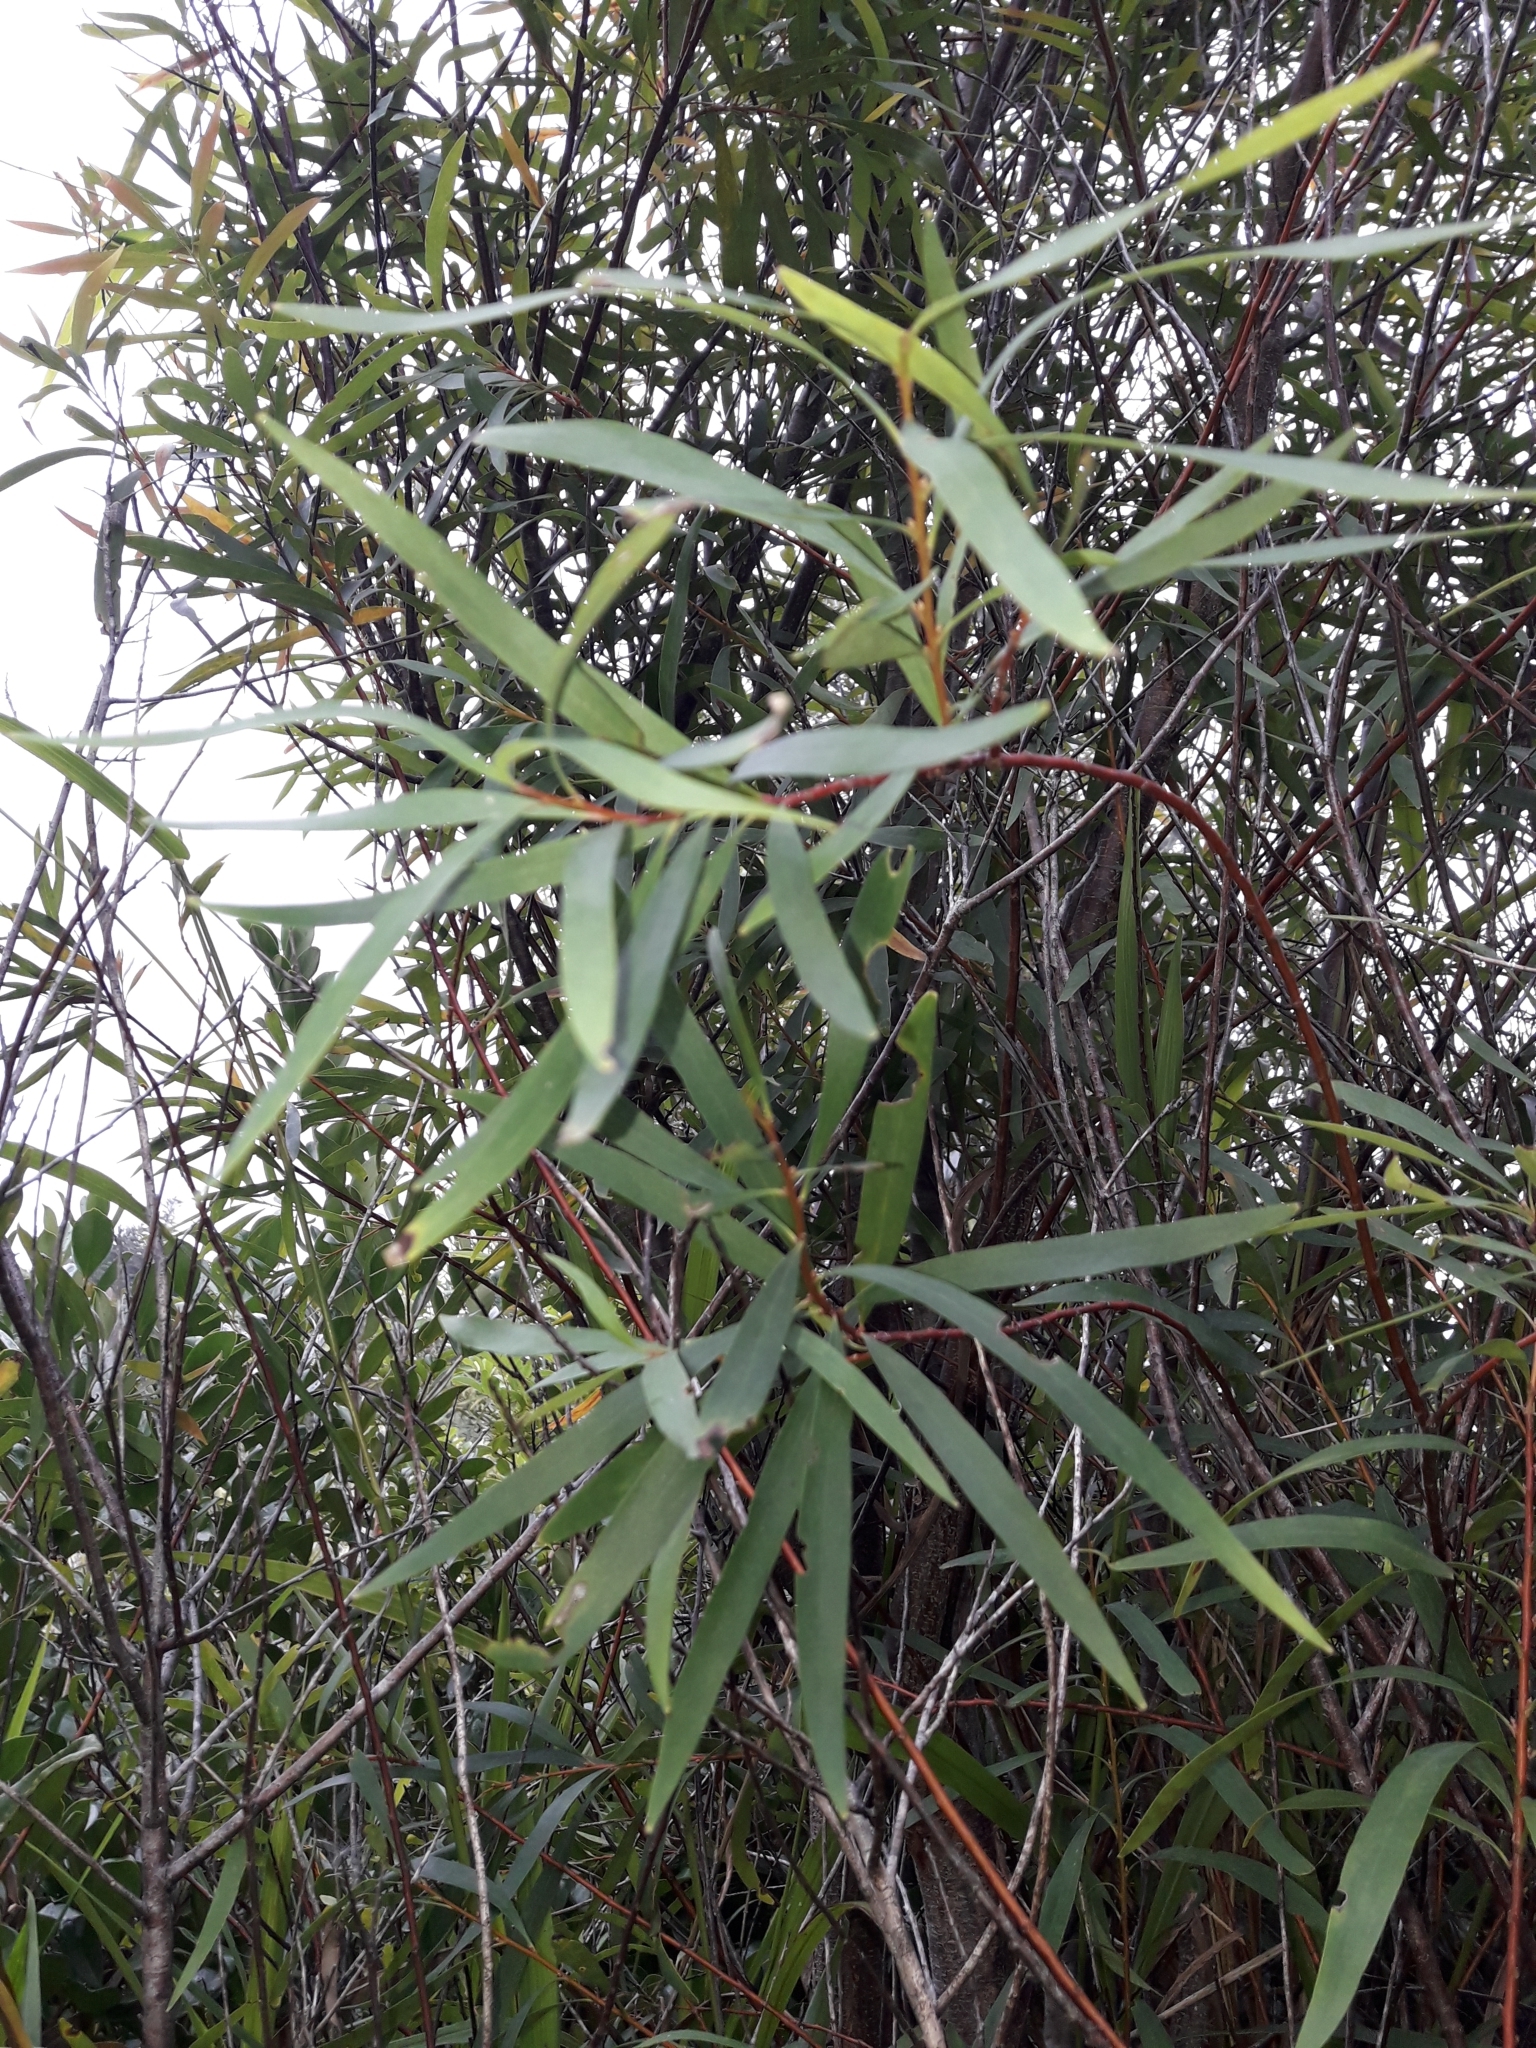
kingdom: Plantae
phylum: Tracheophyta
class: Magnoliopsida
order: Proteales
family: Proteaceae
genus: Hakea
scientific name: Hakea salicifolia
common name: Willow hakea
